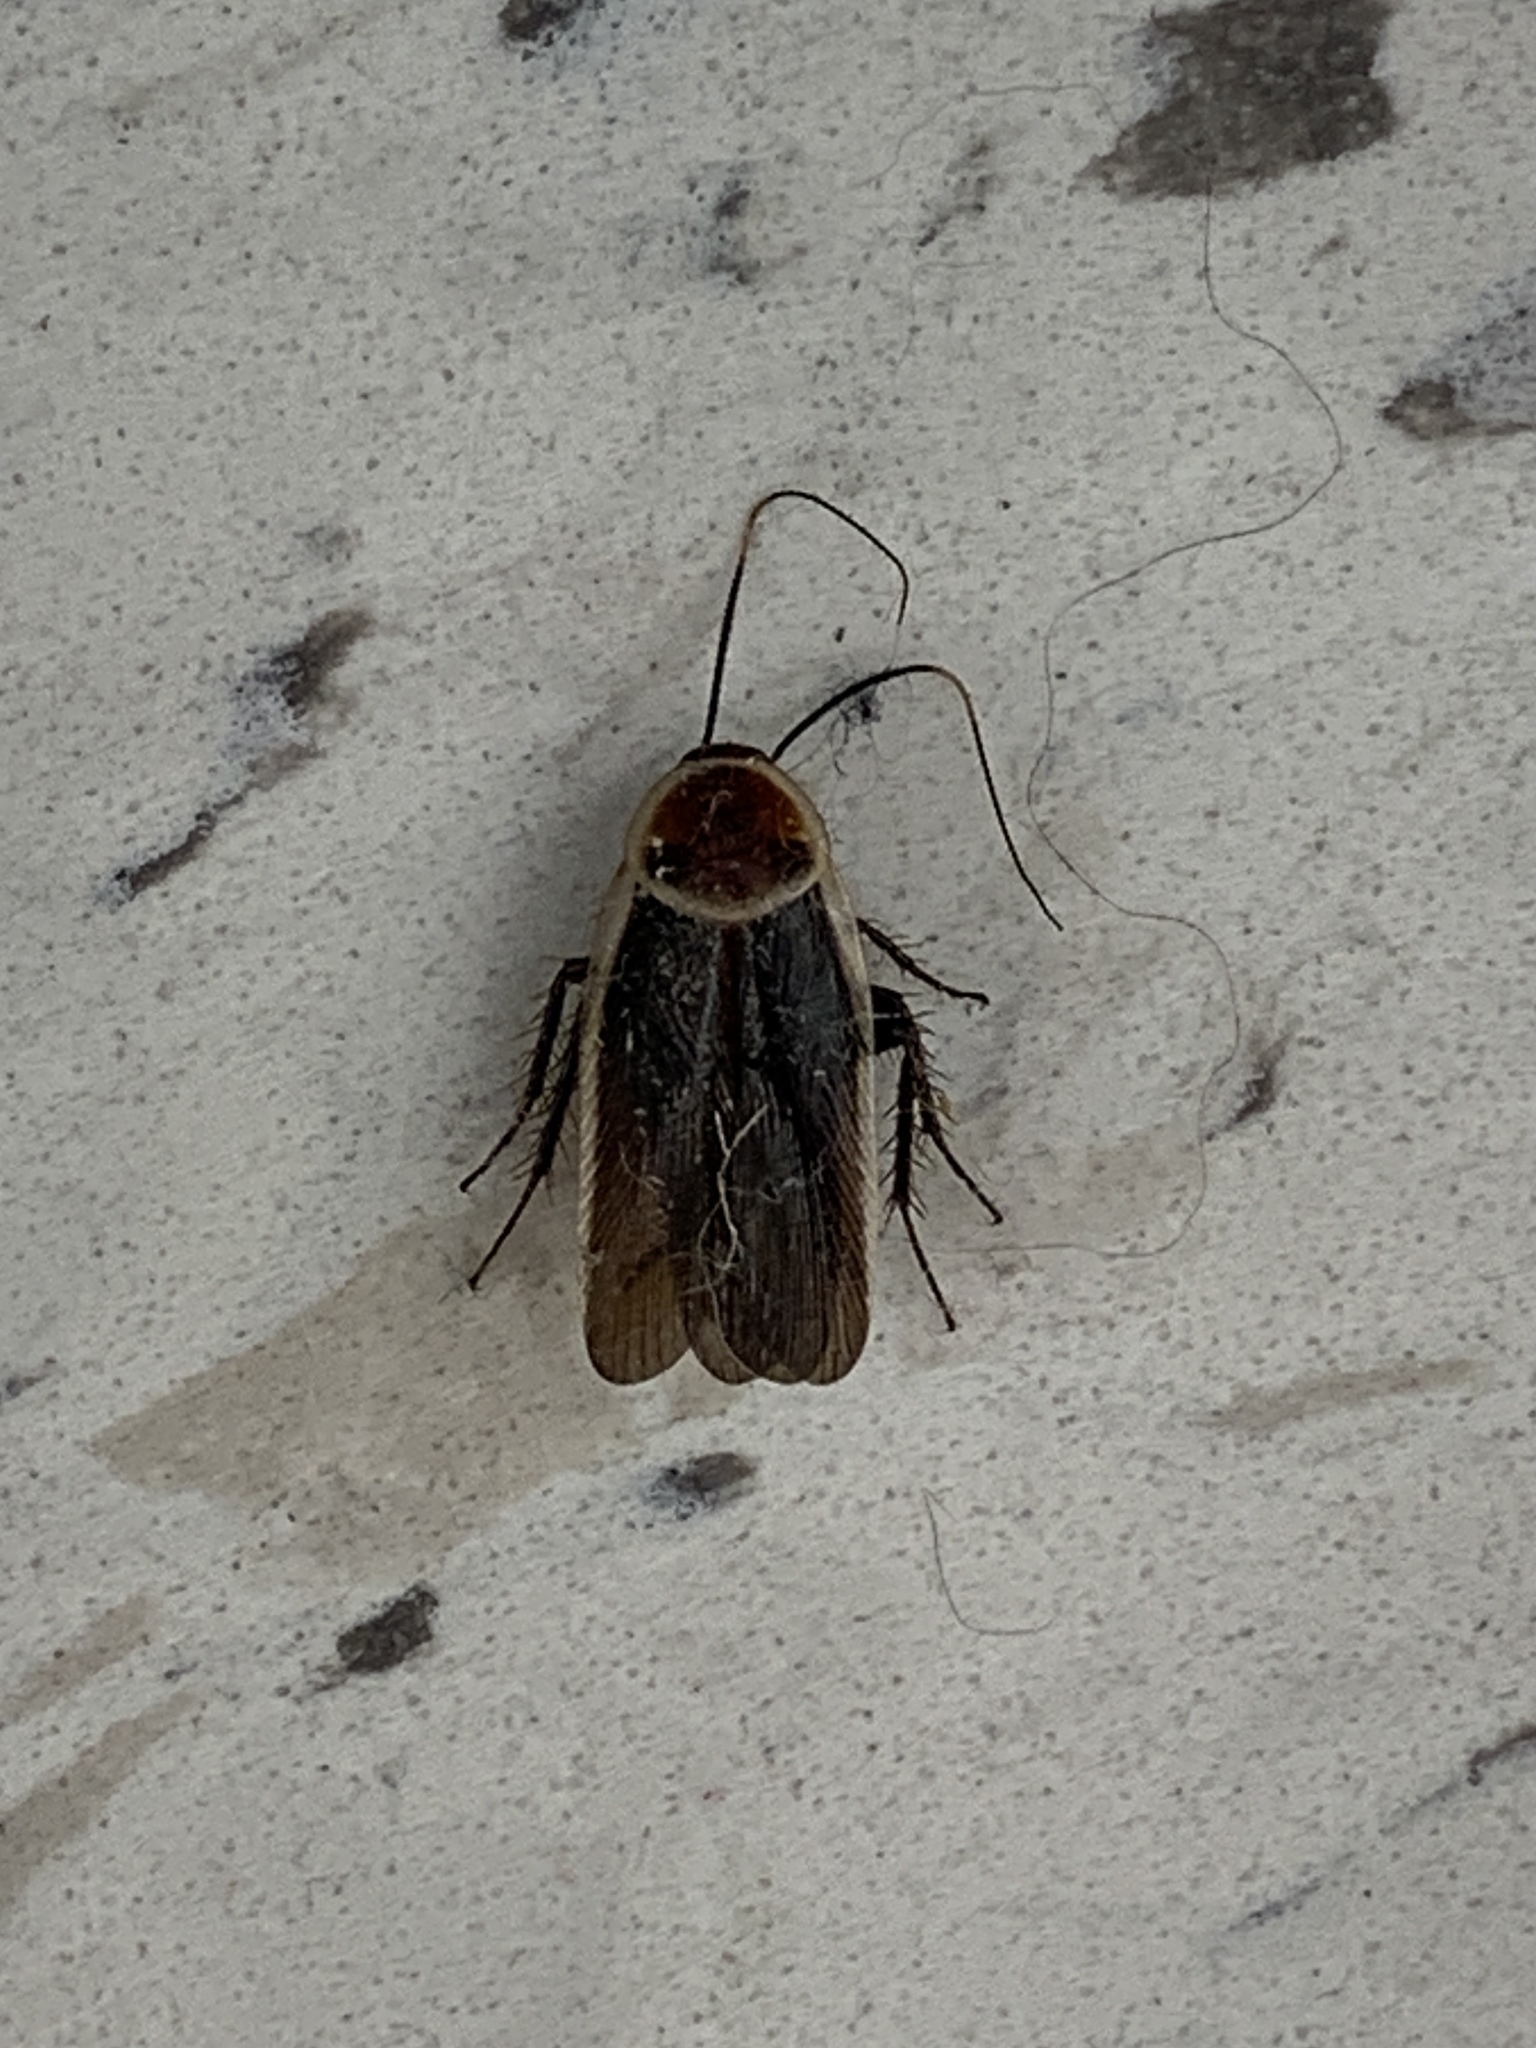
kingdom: Animalia
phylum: Arthropoda
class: Insecta
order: Blattodea
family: Ectobiidae
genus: Pseudomops
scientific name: Pseudomops septentrionalis
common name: Pale-bordered field cockroach
